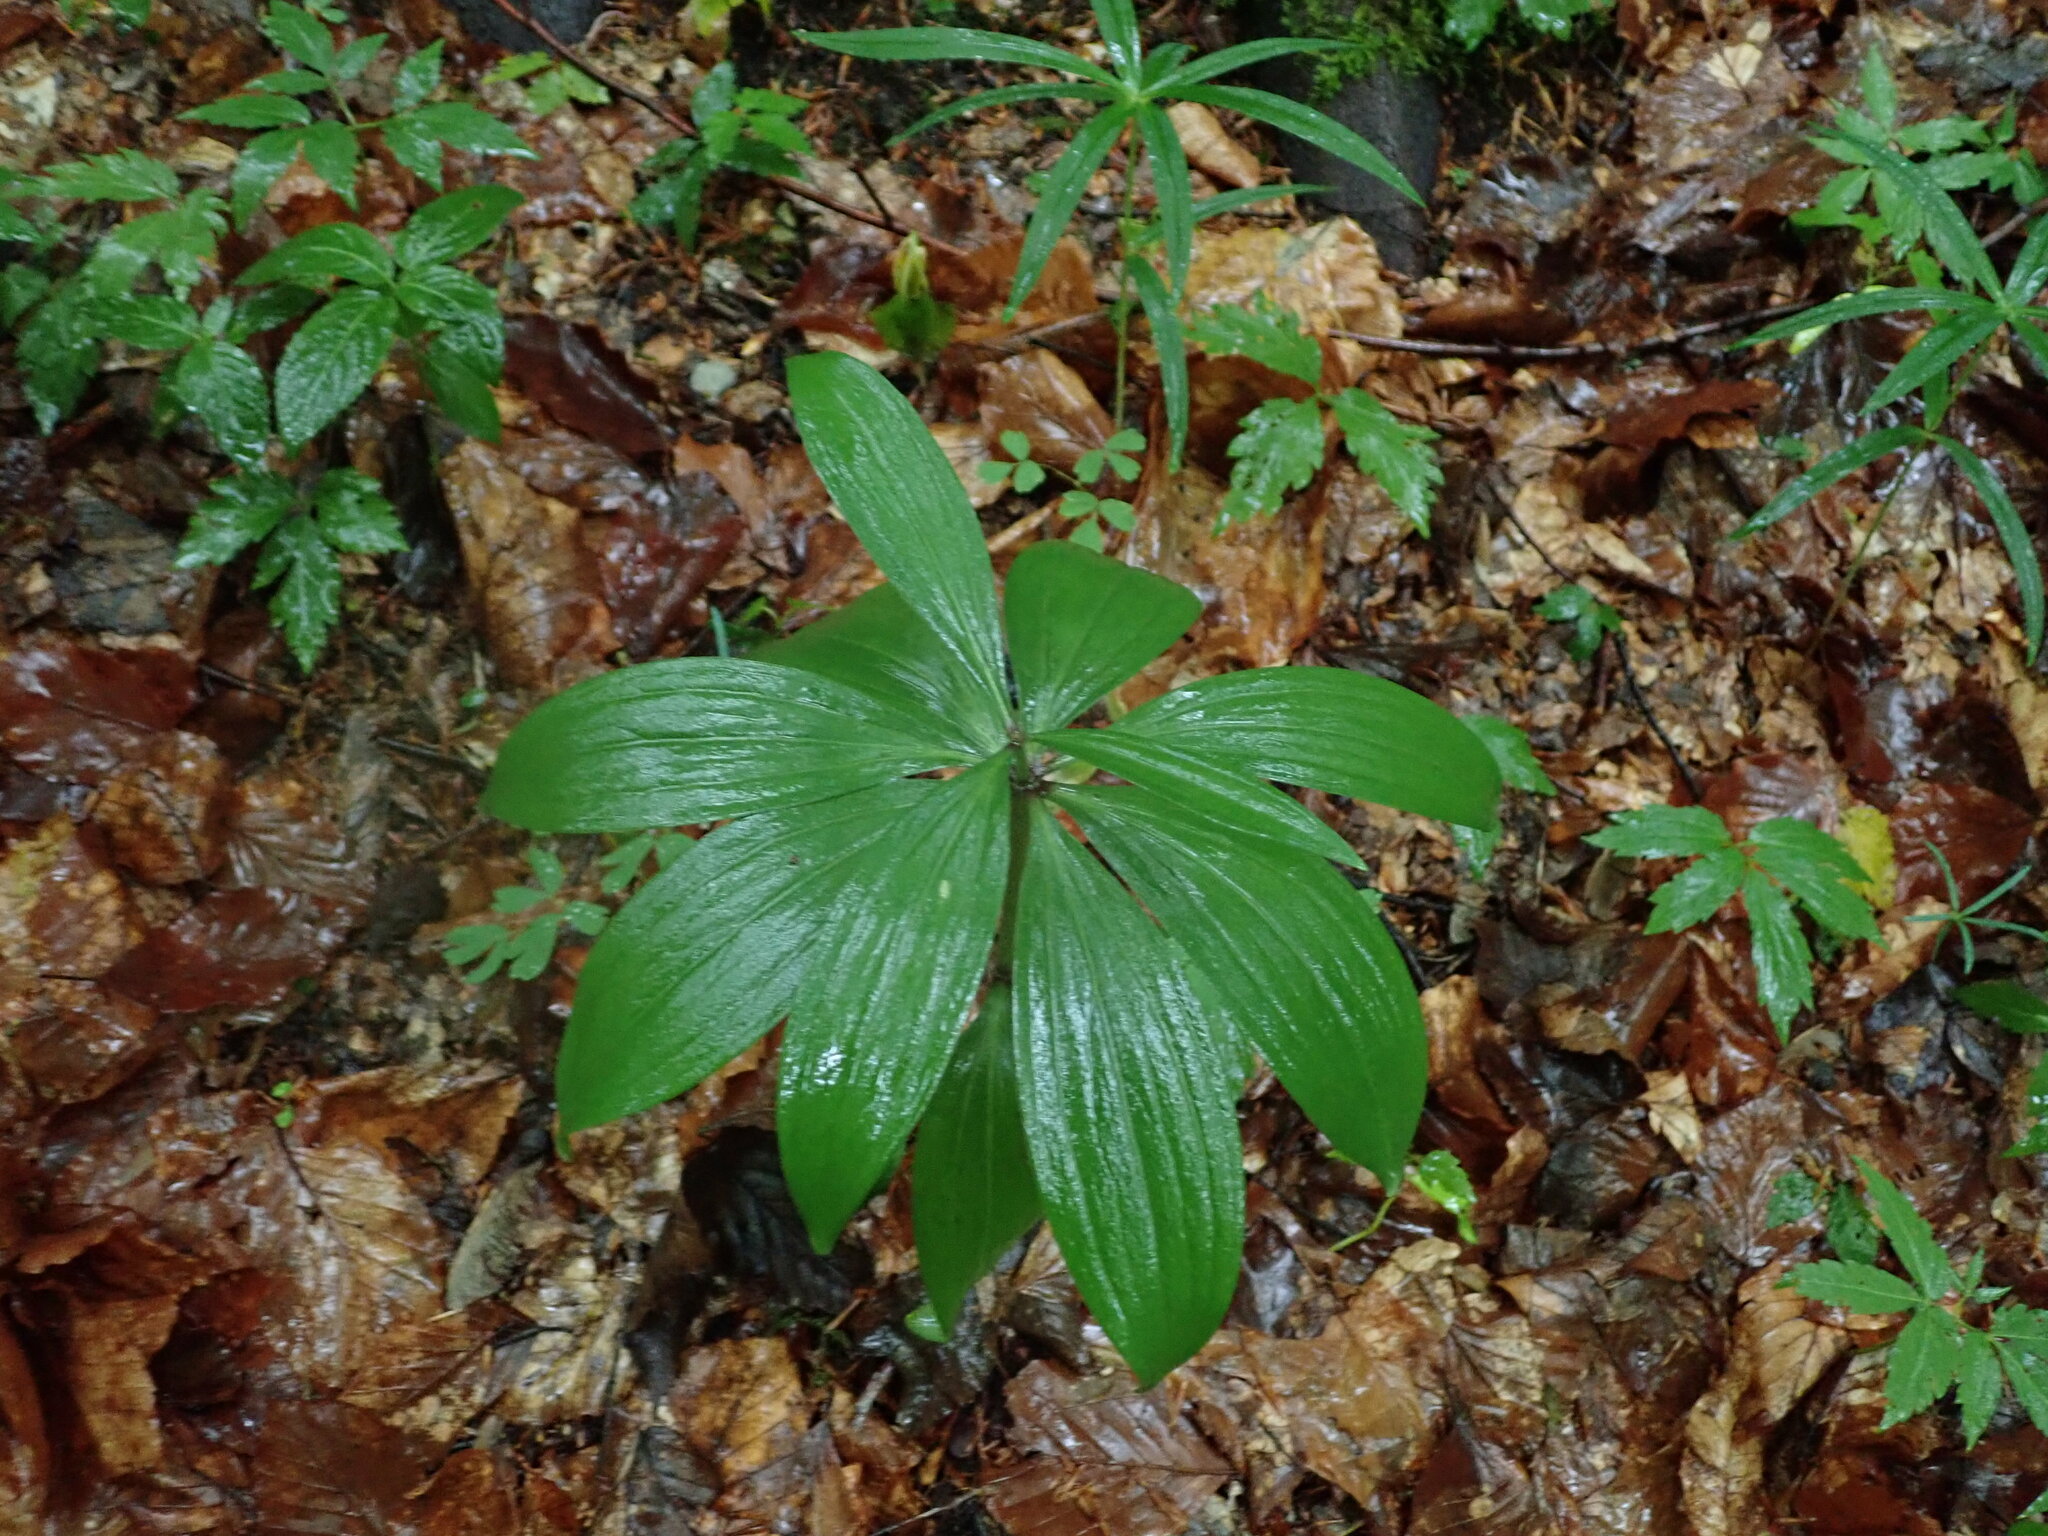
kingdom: Plantae
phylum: Tracheophyta
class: Liliopsida
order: Liliales
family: Liliaceae
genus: Lilium
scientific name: Lilium martagon
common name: Martagon lily
